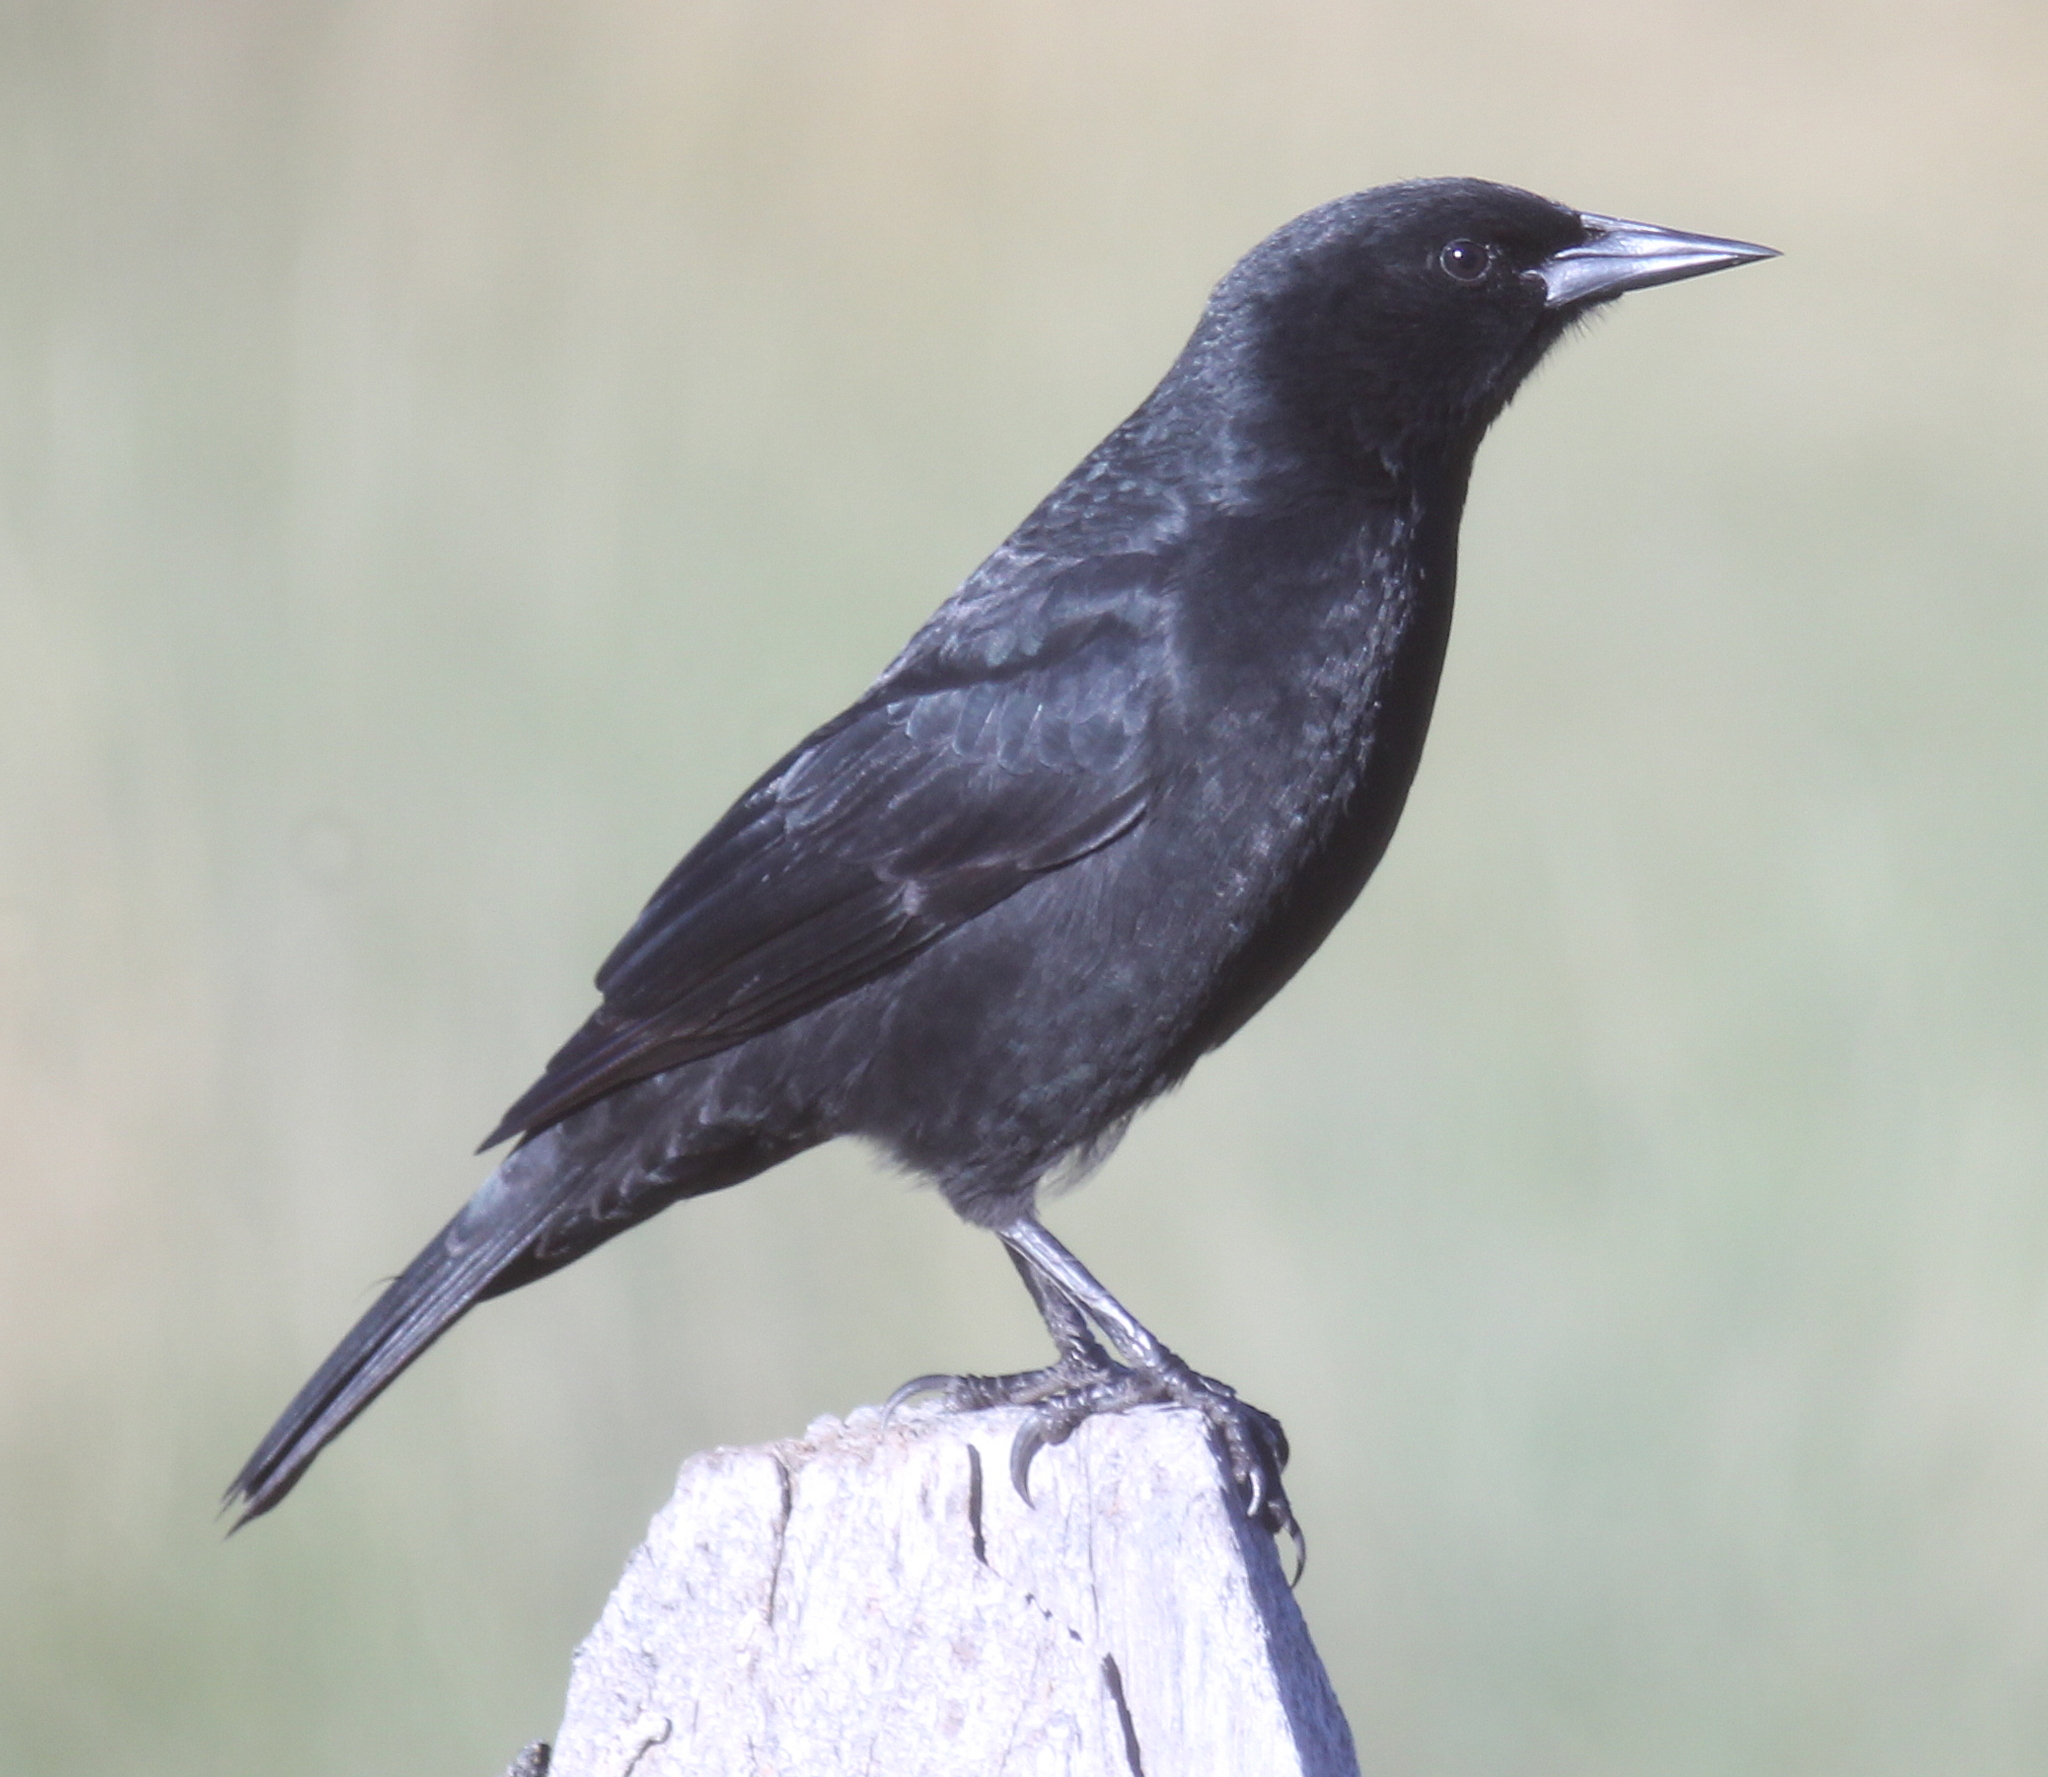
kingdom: Animalia
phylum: Chordata
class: Aves
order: Passeriformes
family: Icteridae
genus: Curaeus
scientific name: Curaeus curaeus
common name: Austral blackbird
